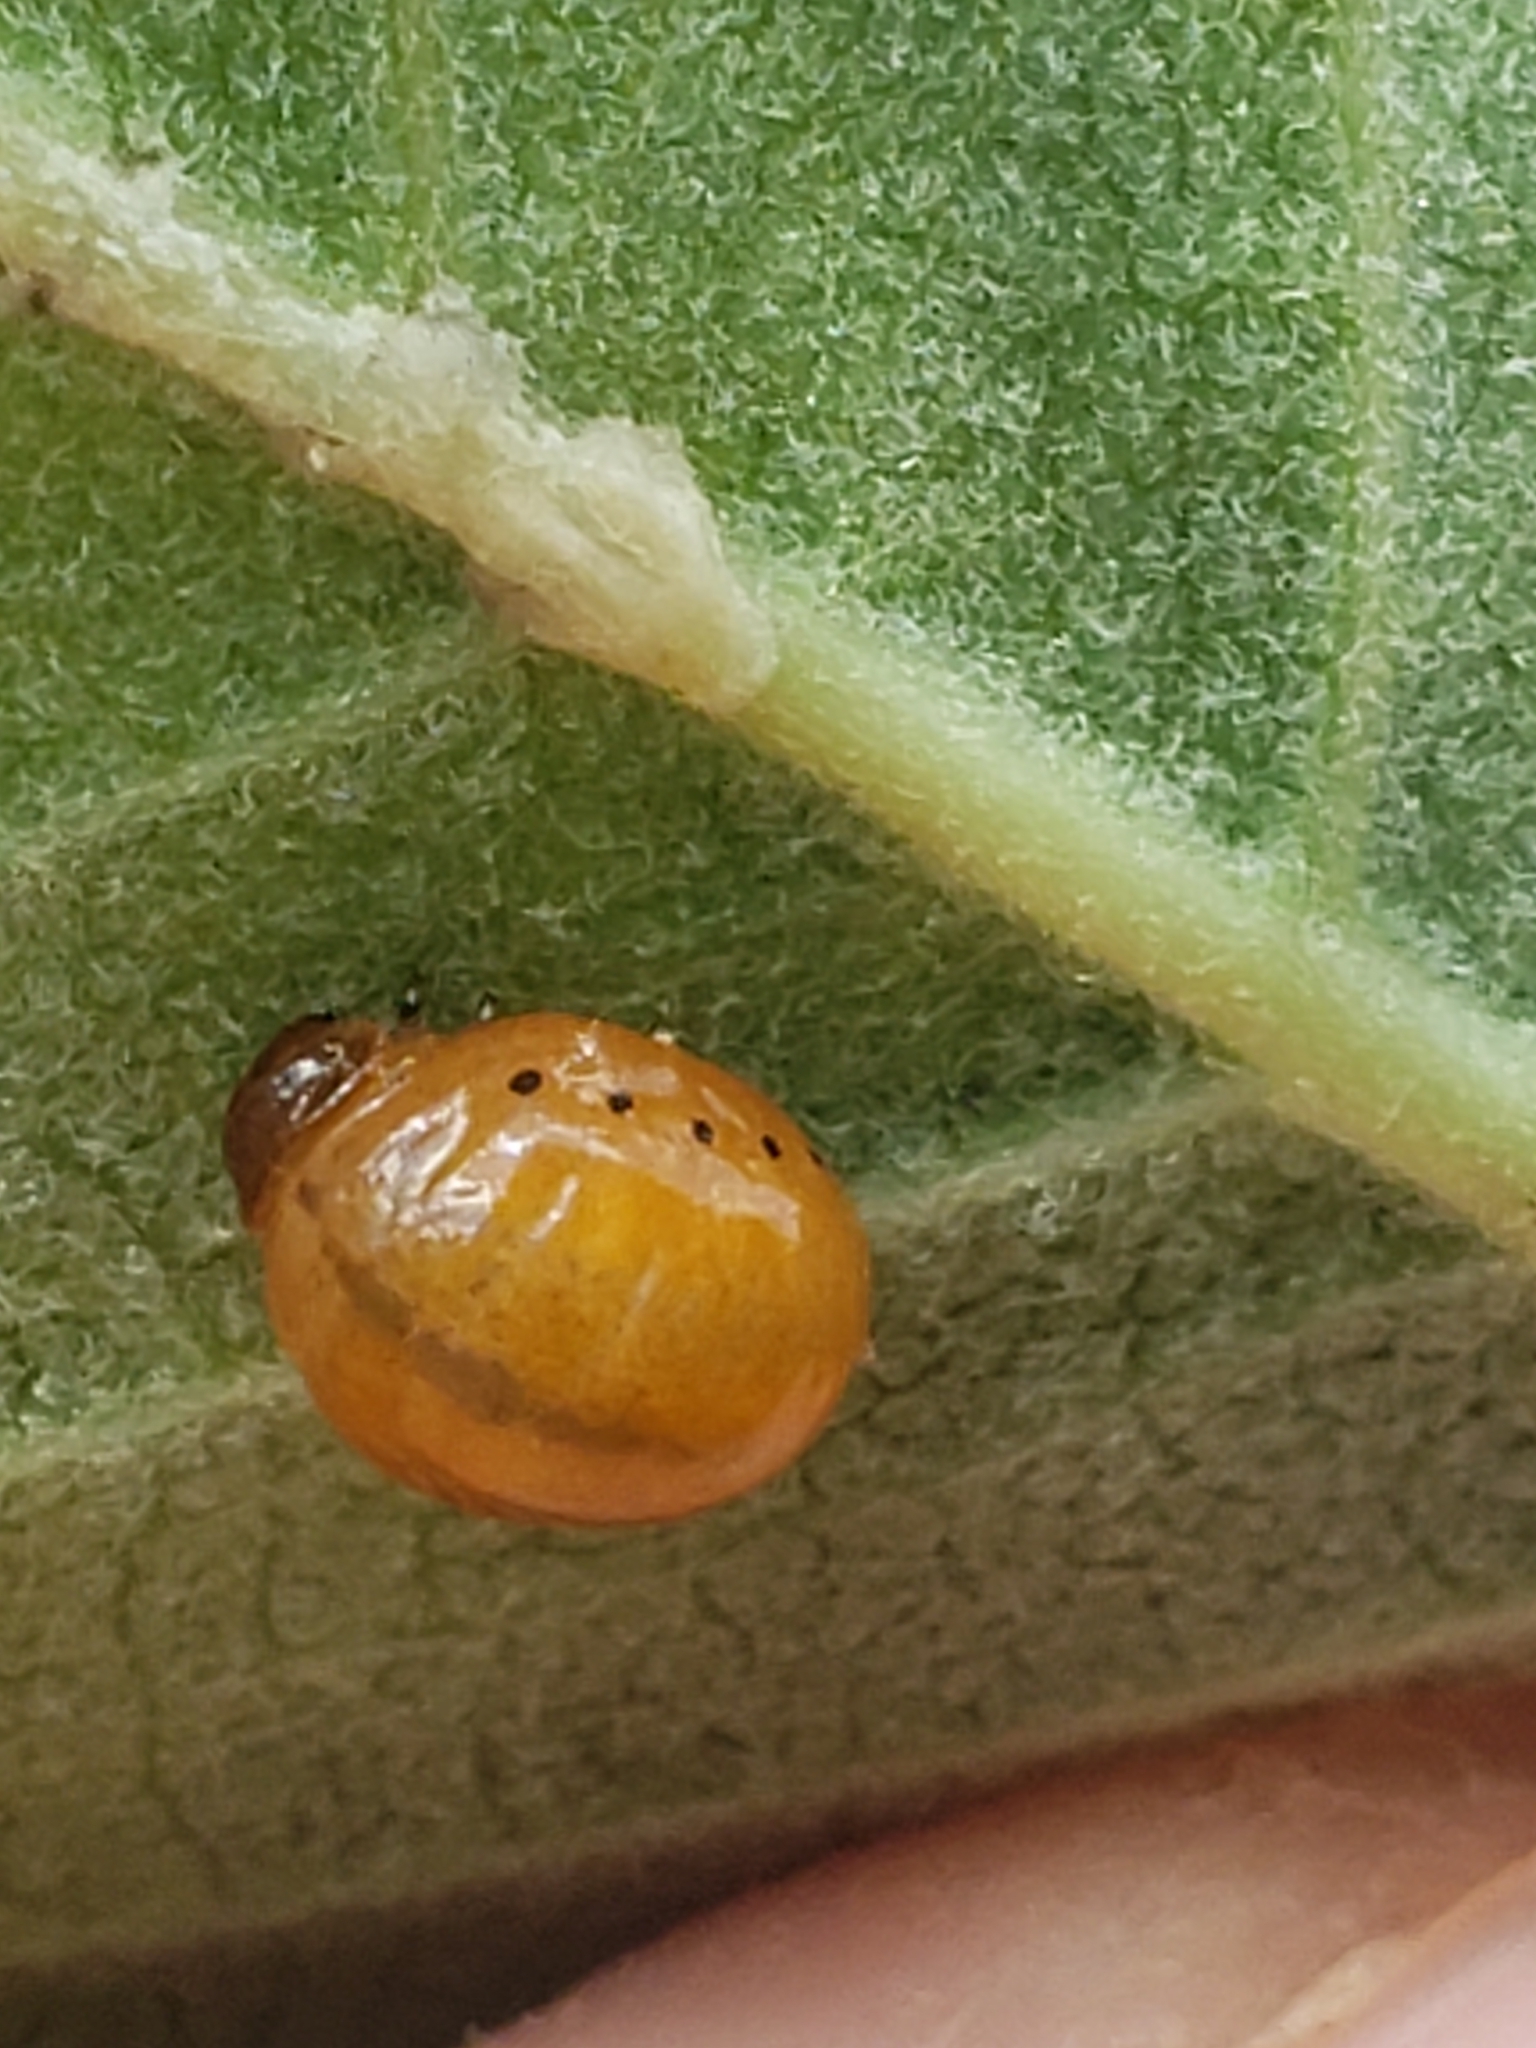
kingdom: Animalia
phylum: Arthropoda
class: Insecta
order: Coleoptera
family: Chrysomelidae
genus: Labidomera
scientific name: Labidomera clivicollis
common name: Swamp milkweed leaf beetle
